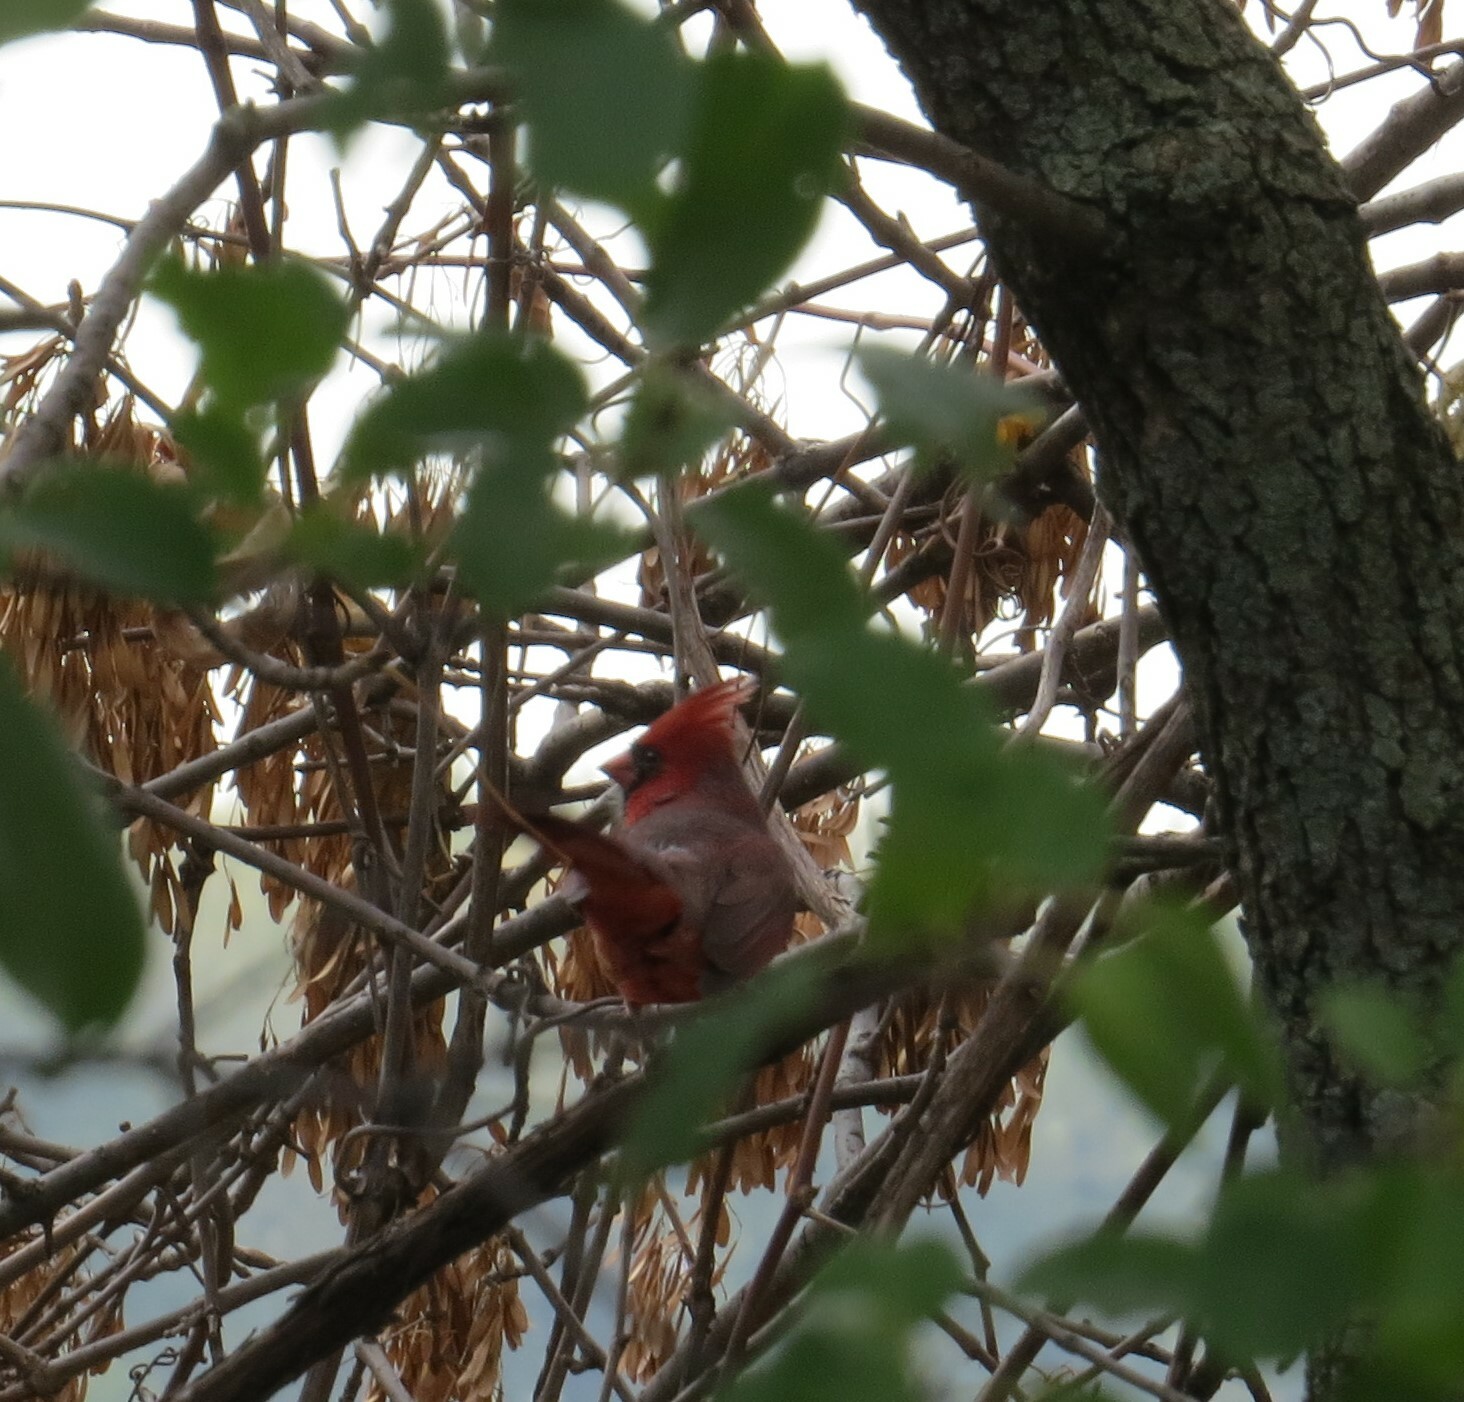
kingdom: Animalia
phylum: Chordata
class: Aves
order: Passeriformes
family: Cardinalidae
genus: Cardinalis
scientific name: Cardinalis cardinalis
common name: Northern cardinal
